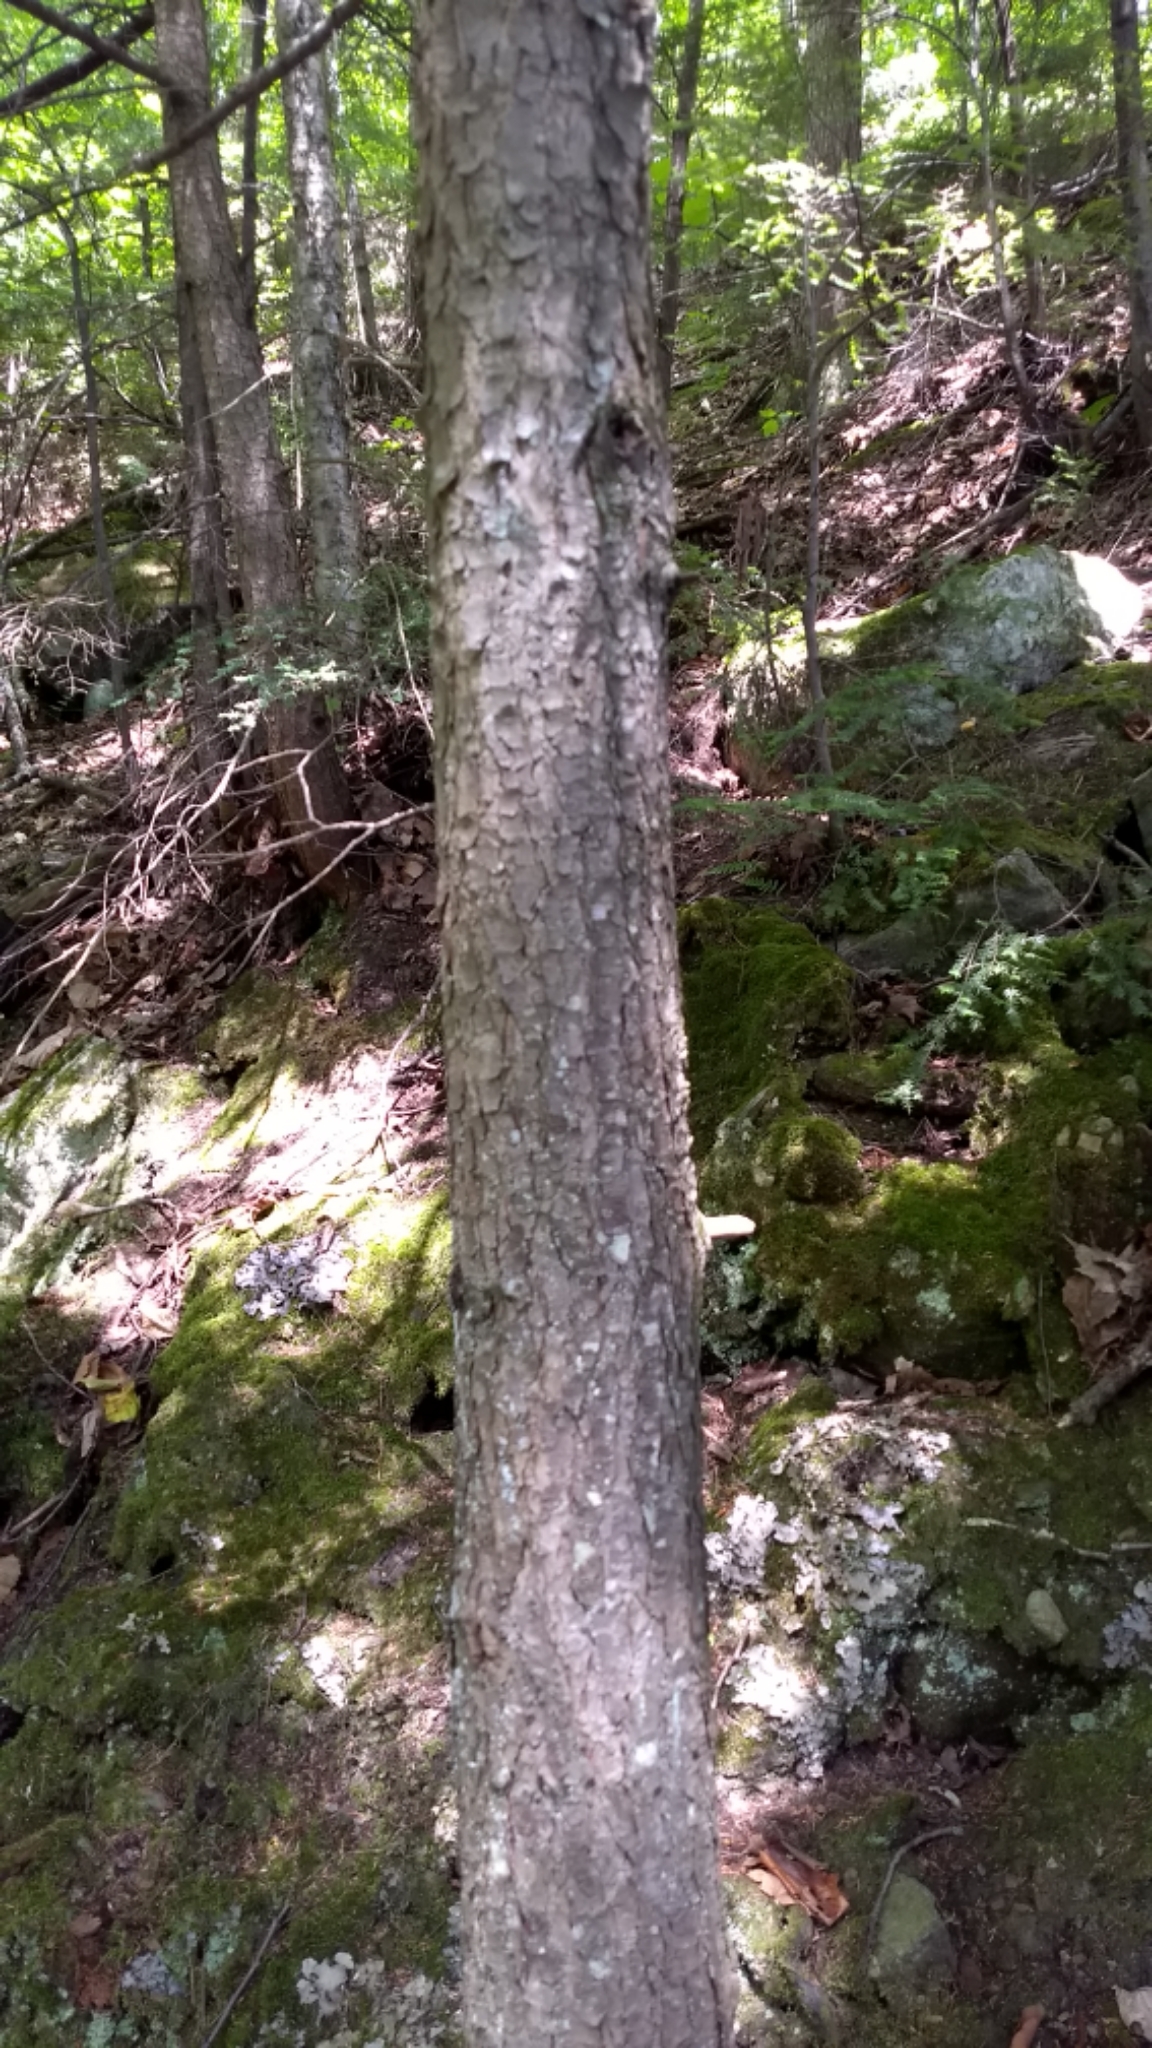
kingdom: Plantae
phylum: Tracheophyta
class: Pinopsida
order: Pinales
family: Pinaceae
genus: Tsuga
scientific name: Tsuga canadensis
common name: Eastern hemlock
